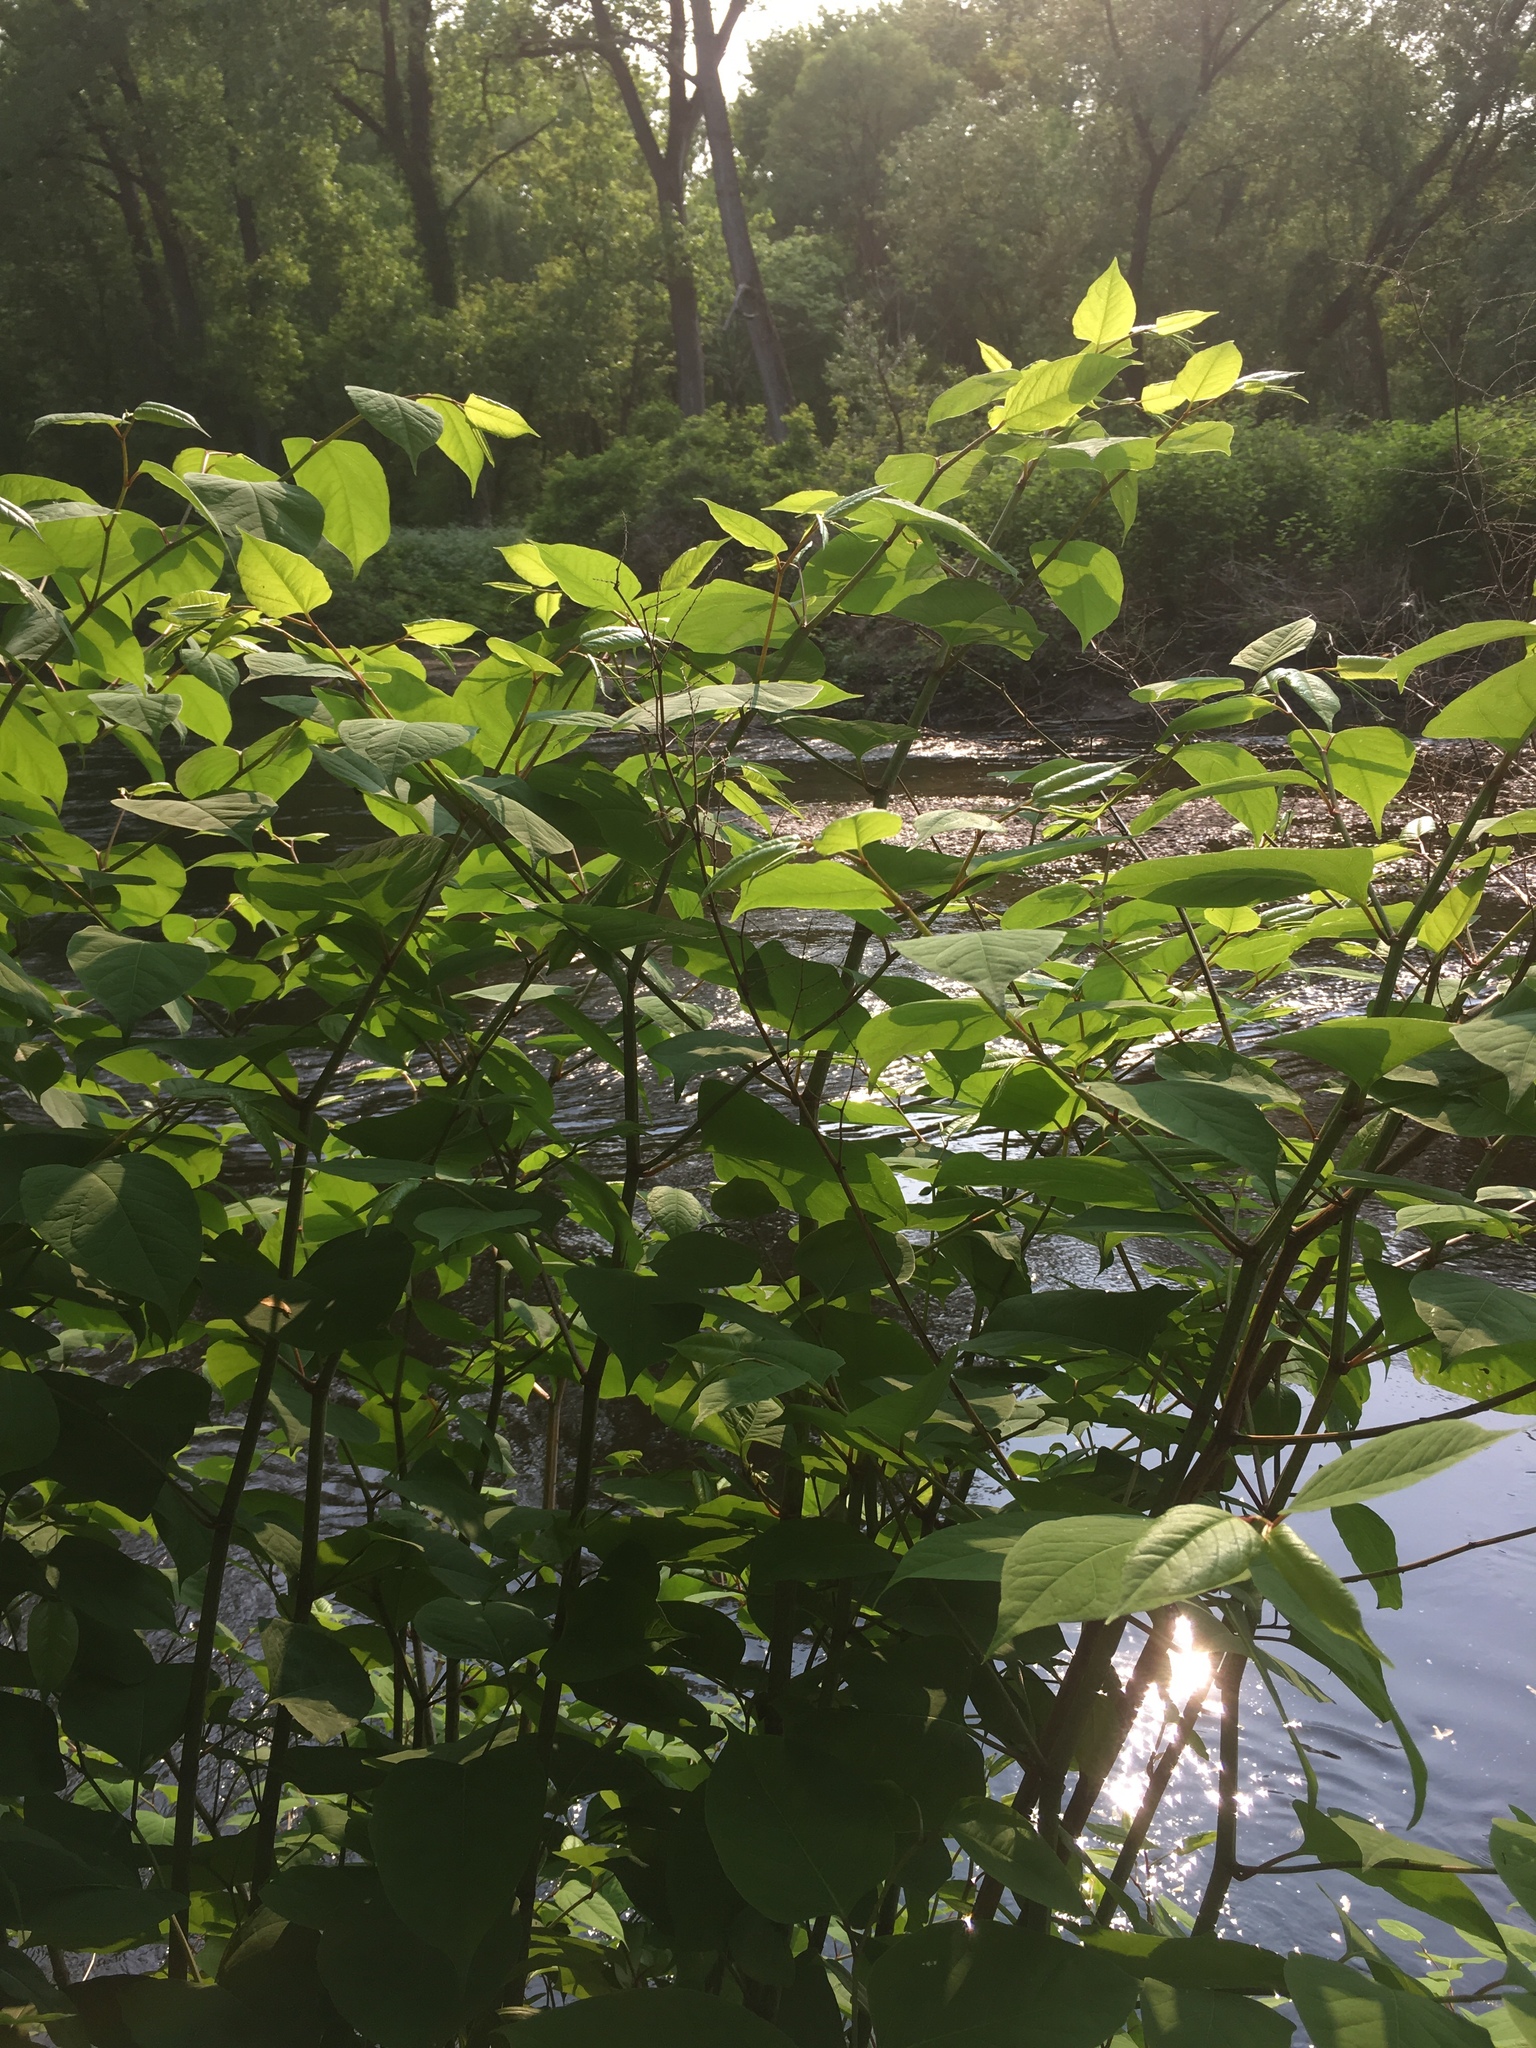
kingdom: Plantae
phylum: Tracheophyta
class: Magnoliopsida
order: Caryophyllales
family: Polygonaceae
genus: Reynoutria
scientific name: Reynoutria japonica
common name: Japanese knotweed
